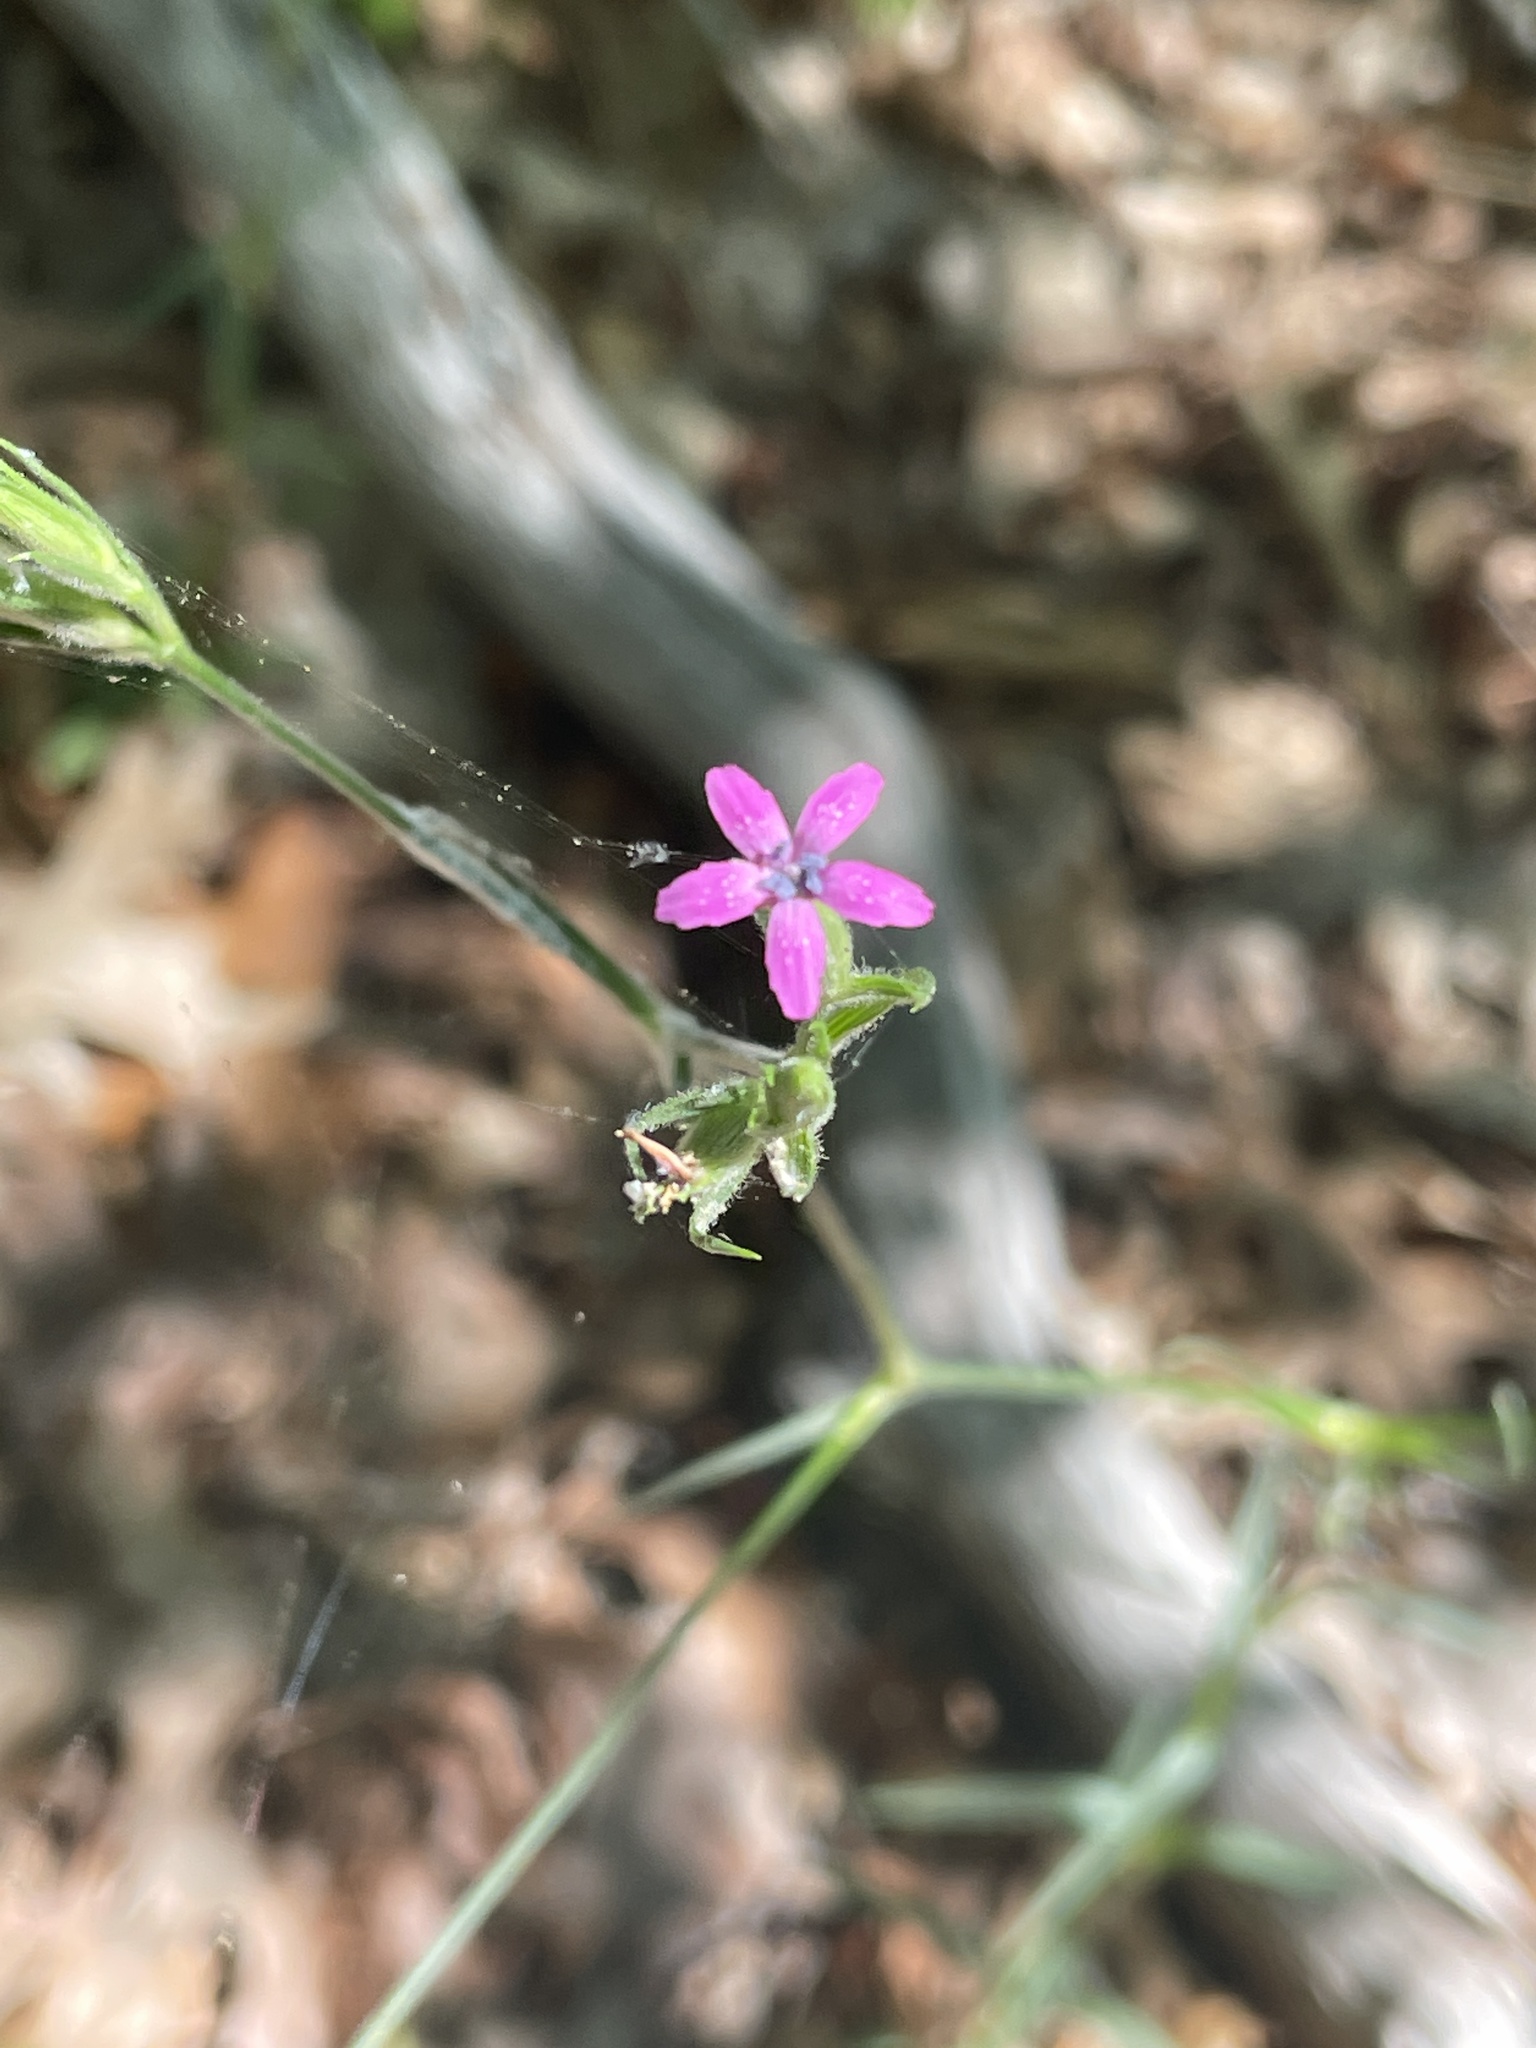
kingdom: Plantae
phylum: Tracheophyta
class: Magnoliopsida
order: Caryophyllales
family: Caryophyllaceae
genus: Dianthus
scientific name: Dianthus armeria
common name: Deptford pink
